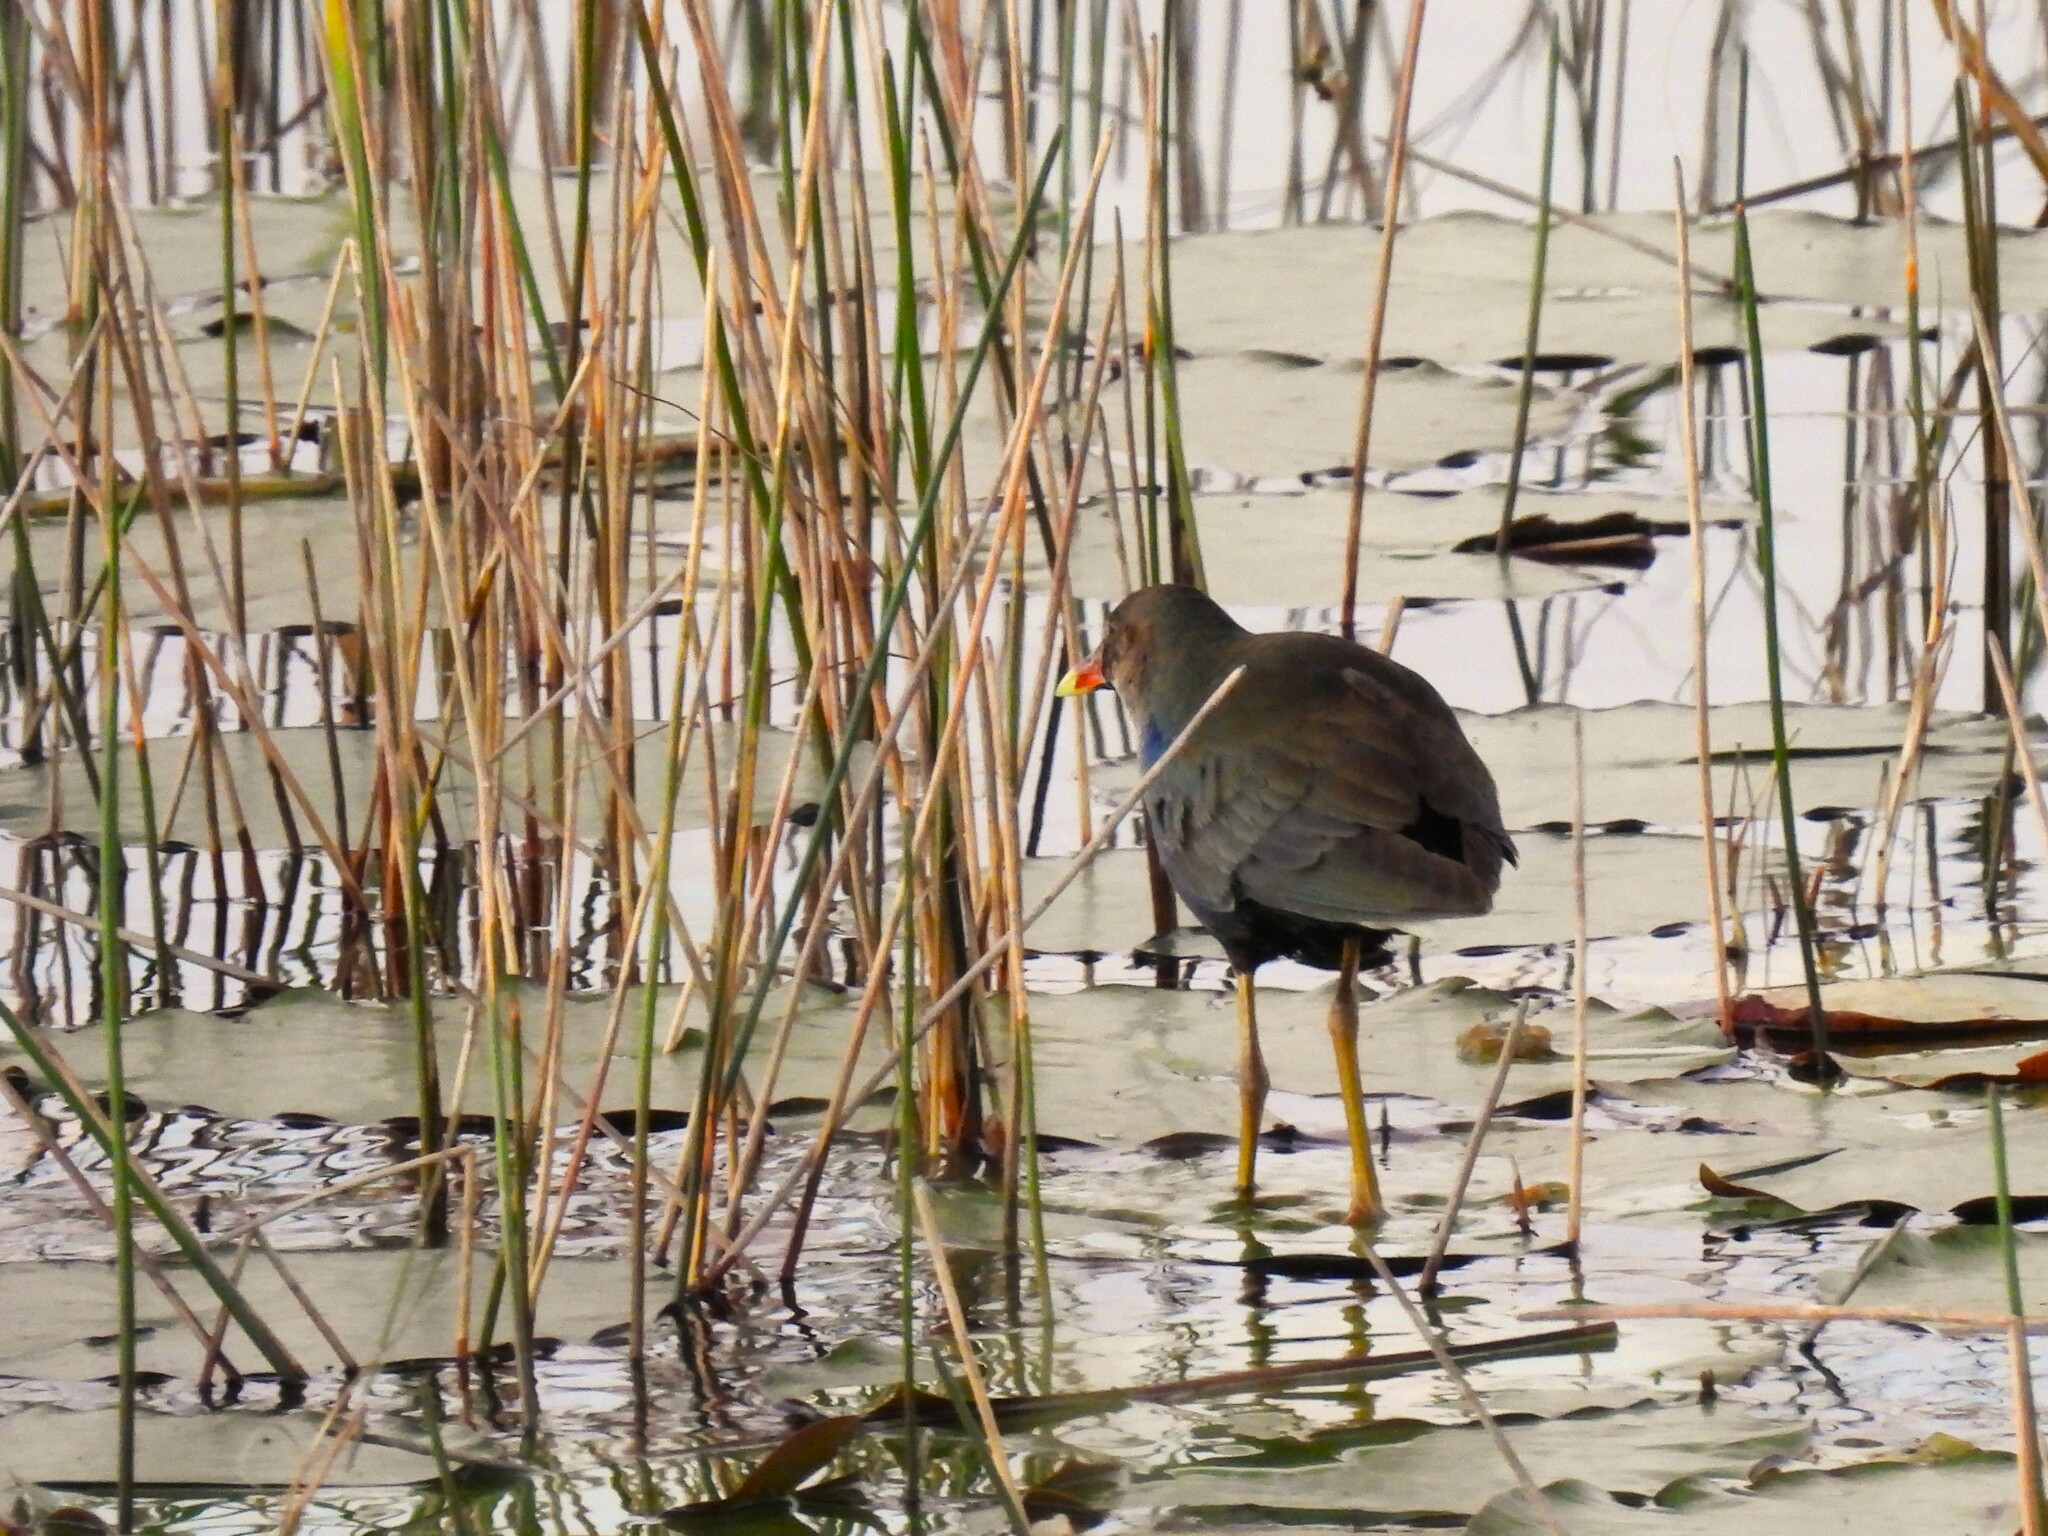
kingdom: Animalia
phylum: Chordata
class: Aves
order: Gruiformes
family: Rallidae
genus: Porphyrio
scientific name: Porphyrio martinica
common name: Purple gallinule
